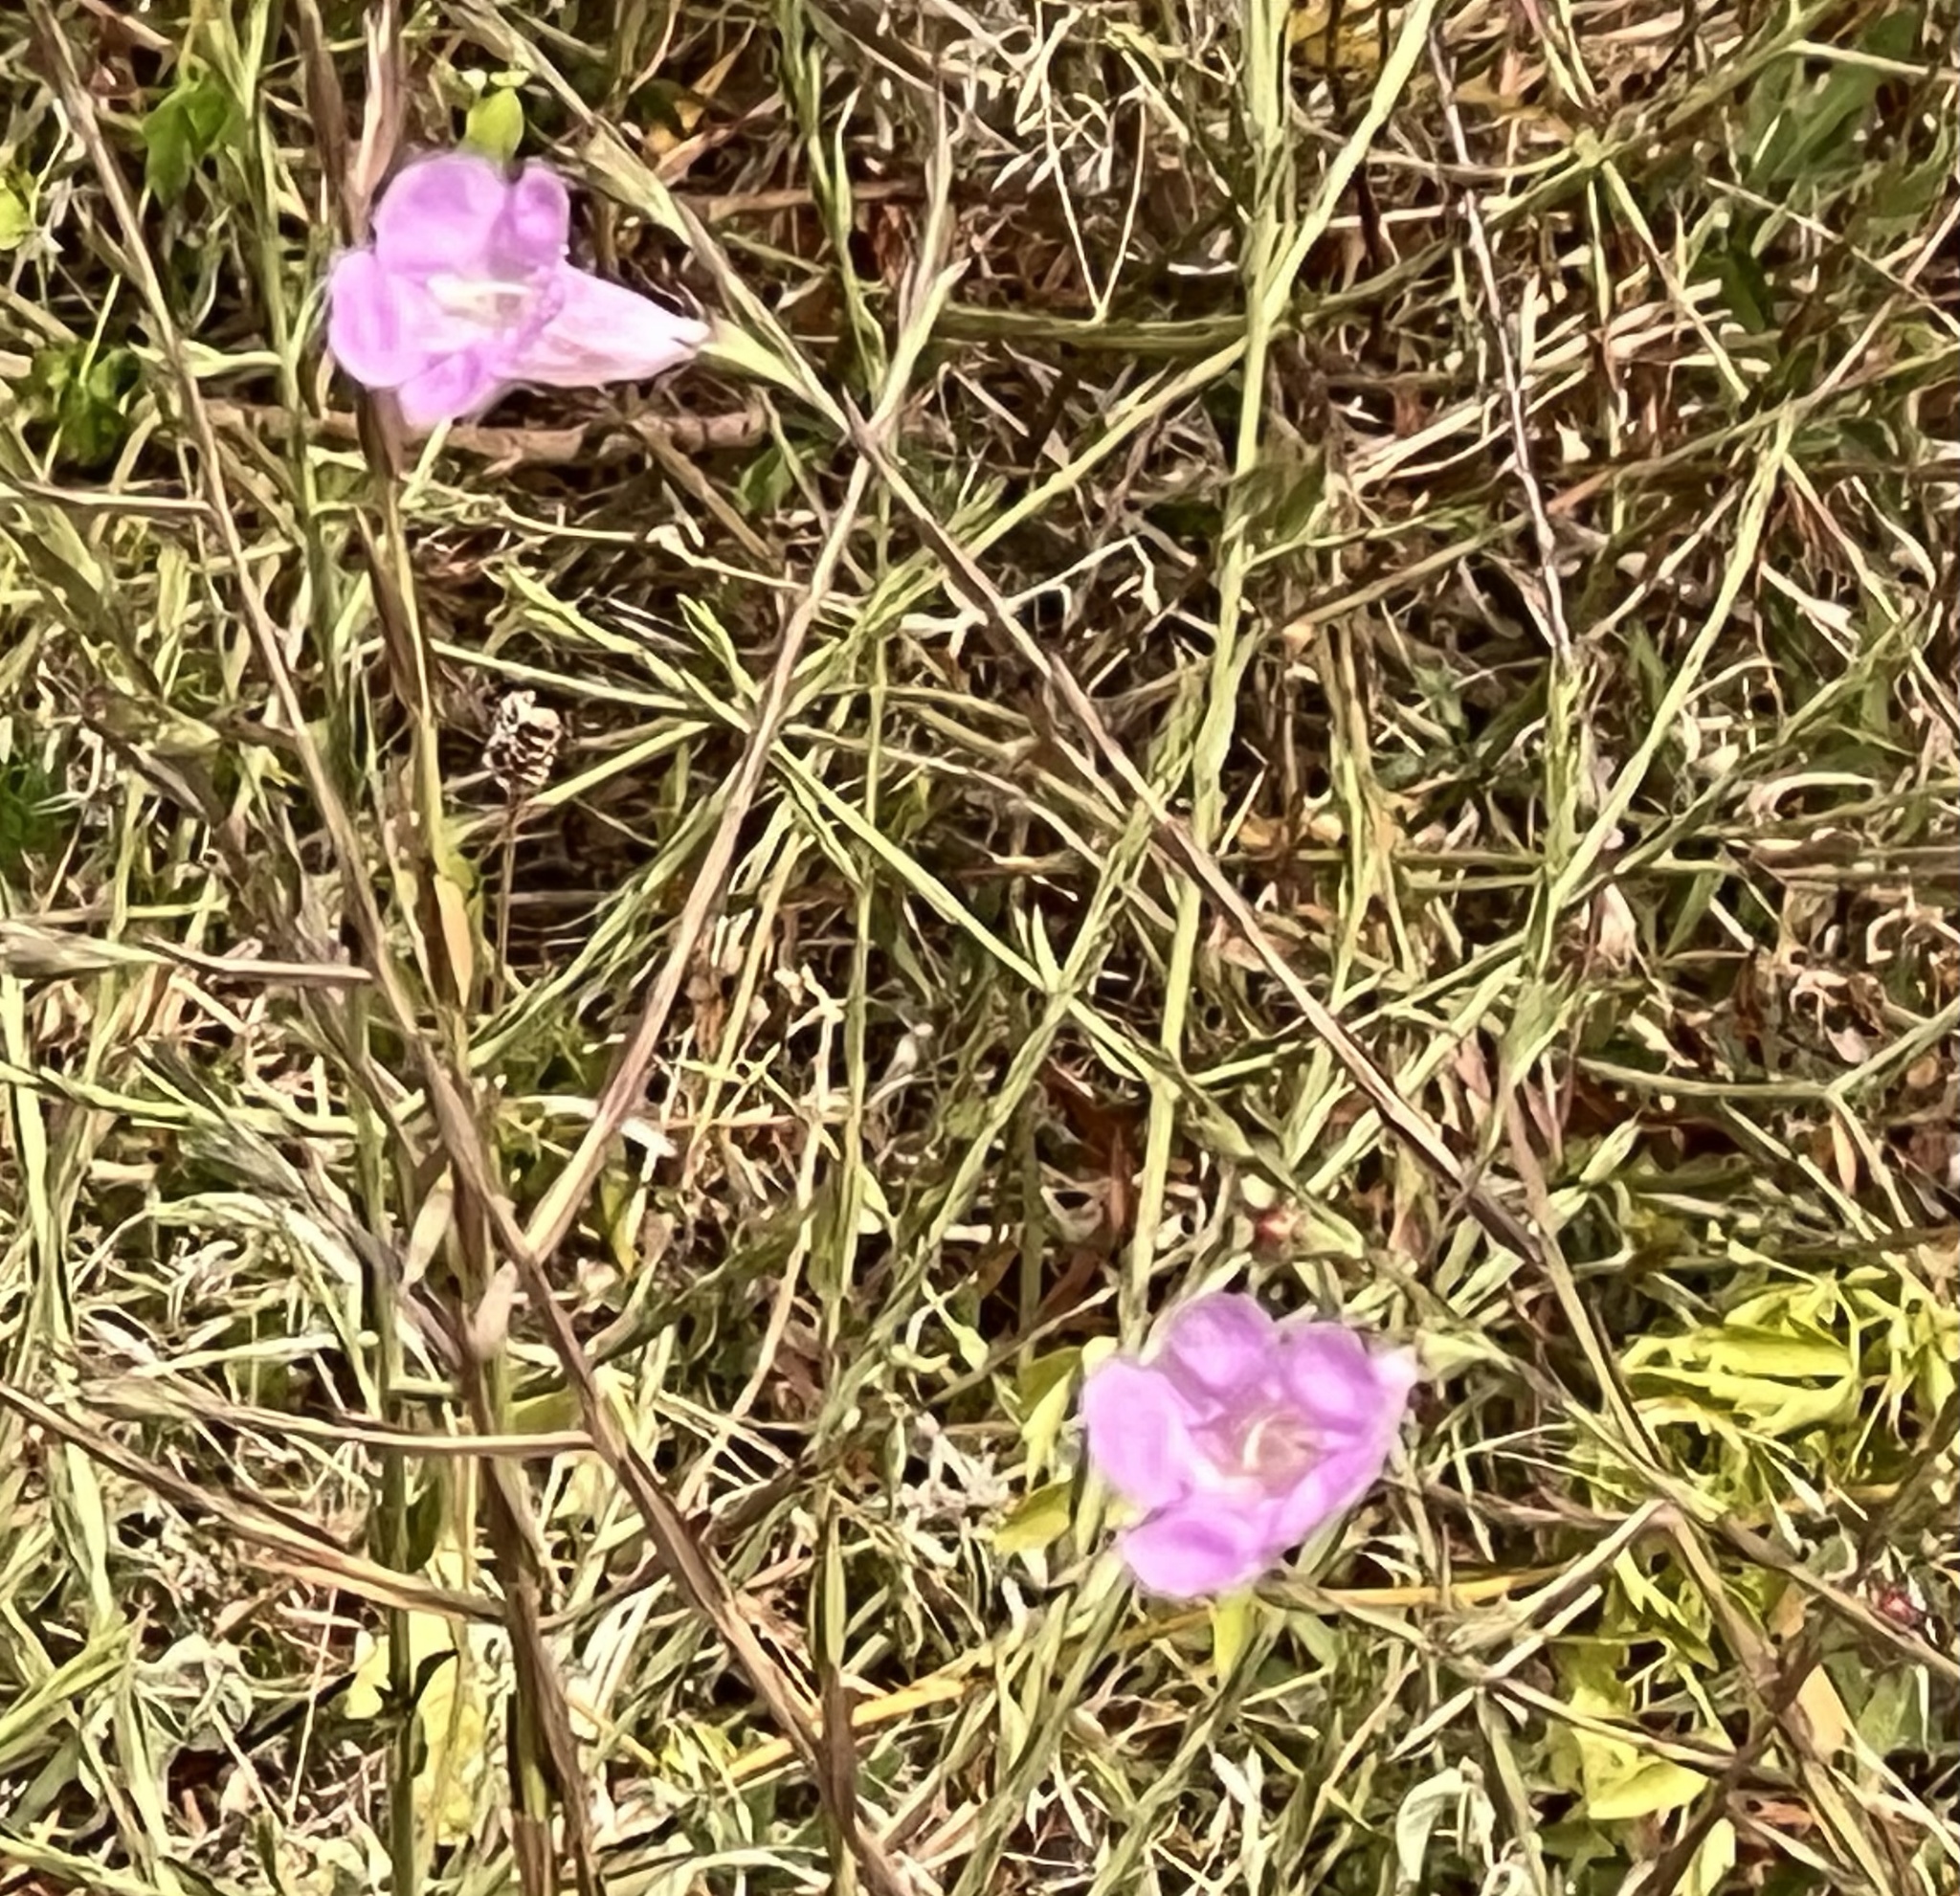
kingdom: Plantae
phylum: Tracheophyta
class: Magnoliopsida
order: Lamiales
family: Orobanchaceae
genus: Agalinis
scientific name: Agalinis heterophylla
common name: Prairie agalinis
